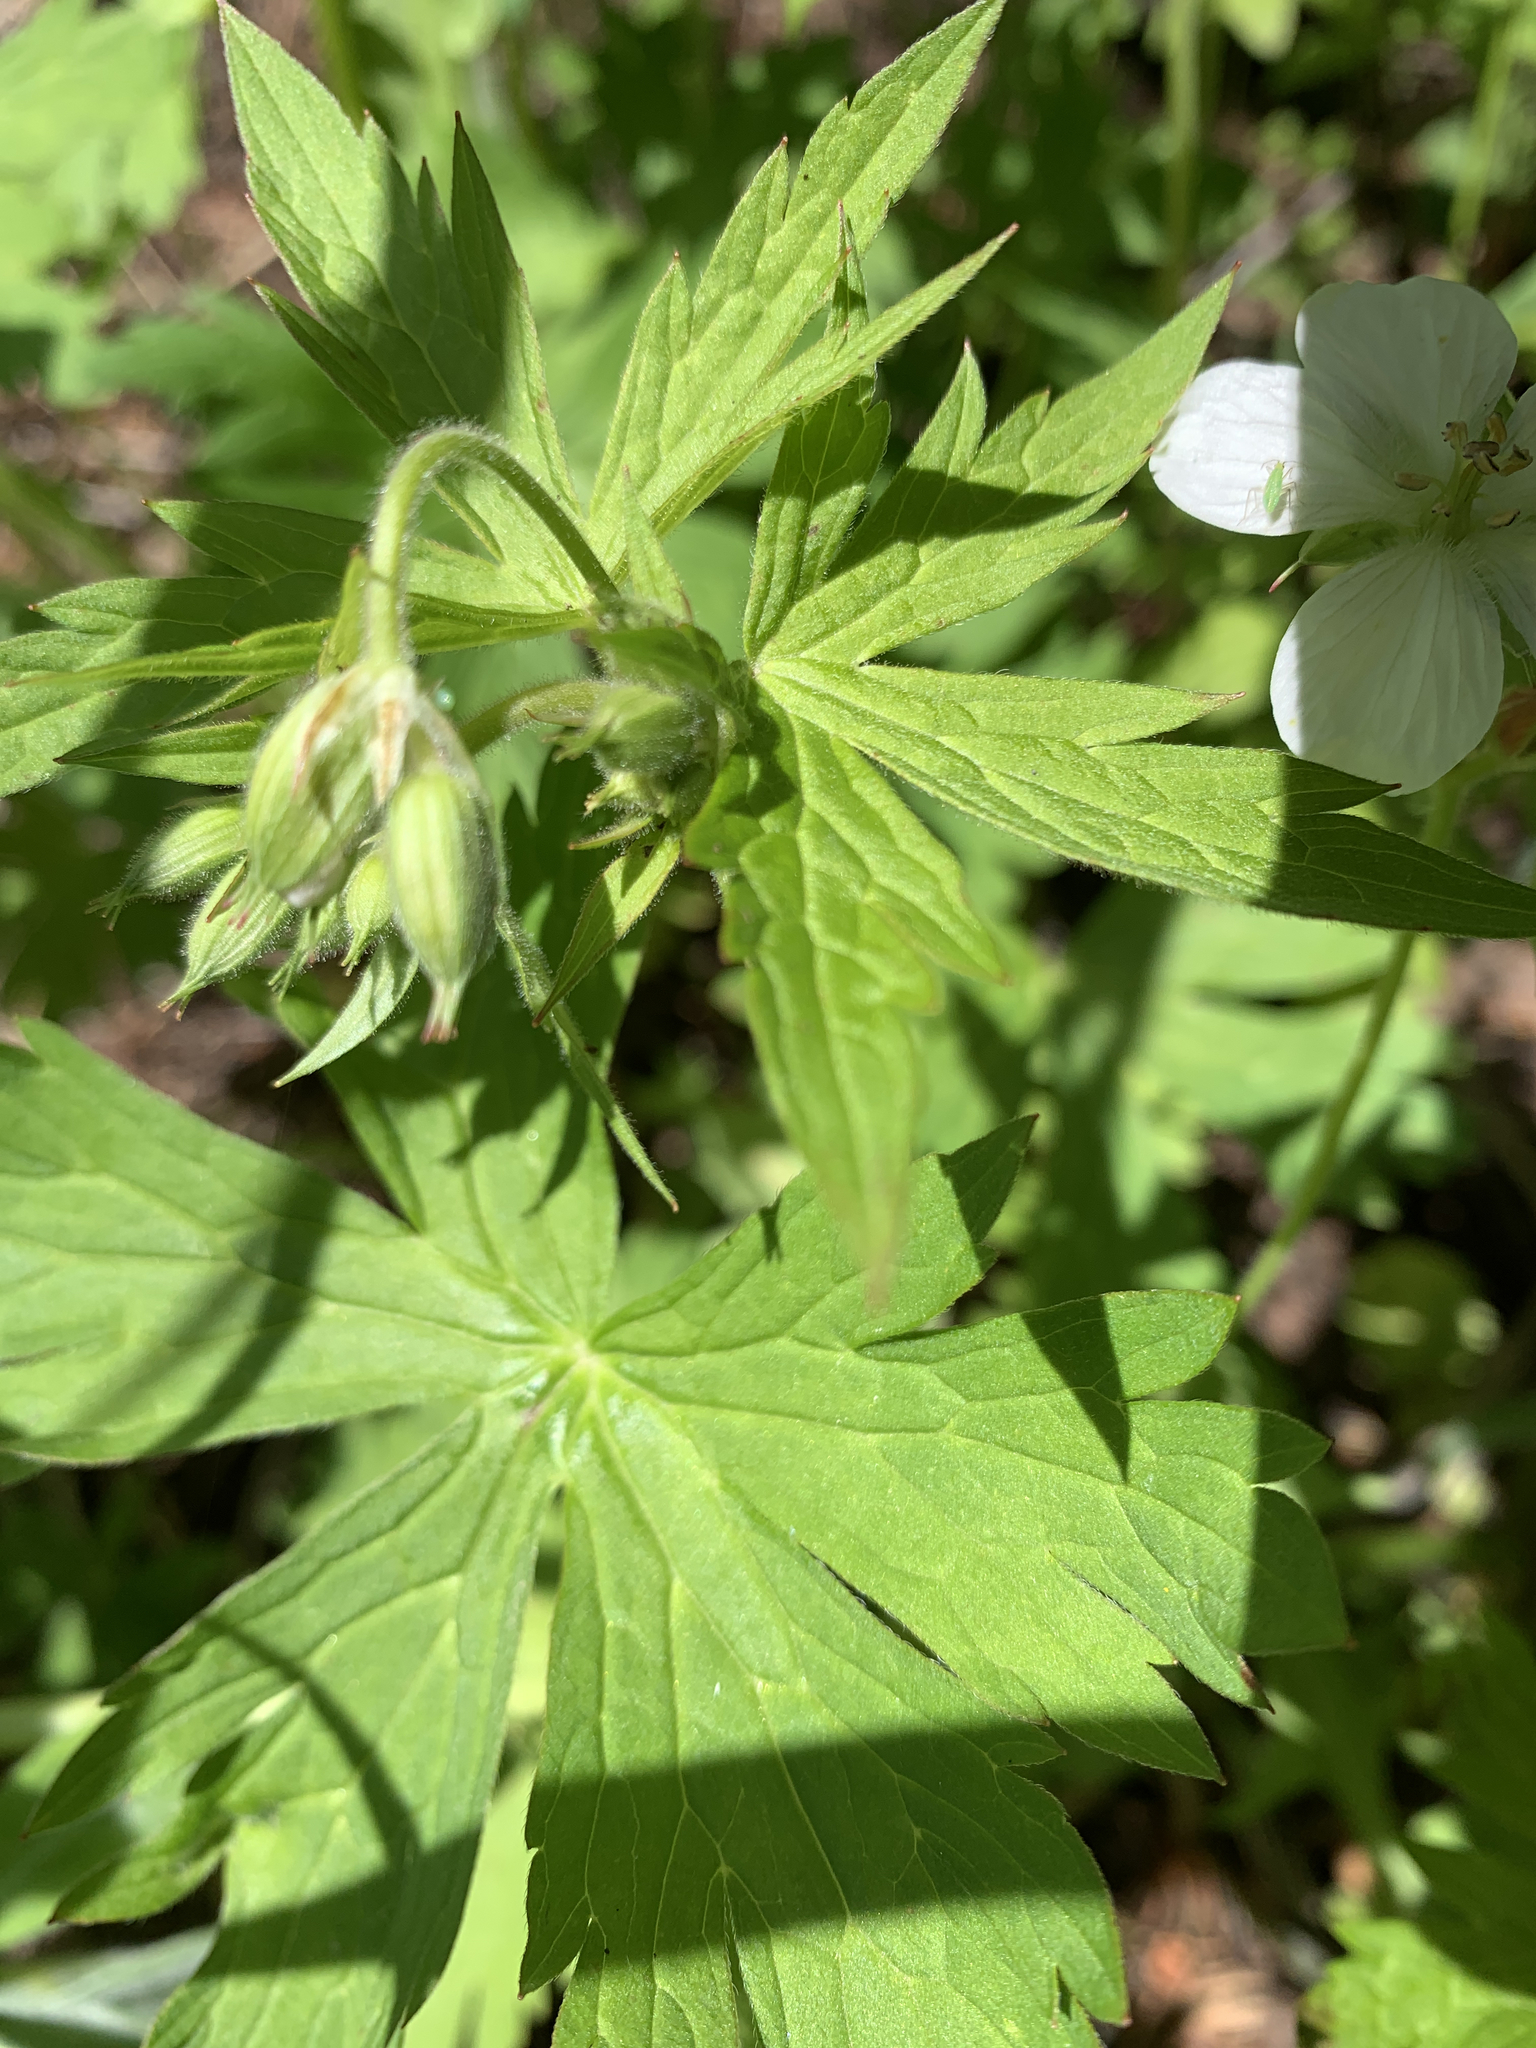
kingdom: Plantae
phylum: Tracheophyta
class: Magnoliopsida
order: Geraniales
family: Geraniaceae
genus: Geranium
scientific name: Geranium richardsonii
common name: Richardson's crane's-bill
